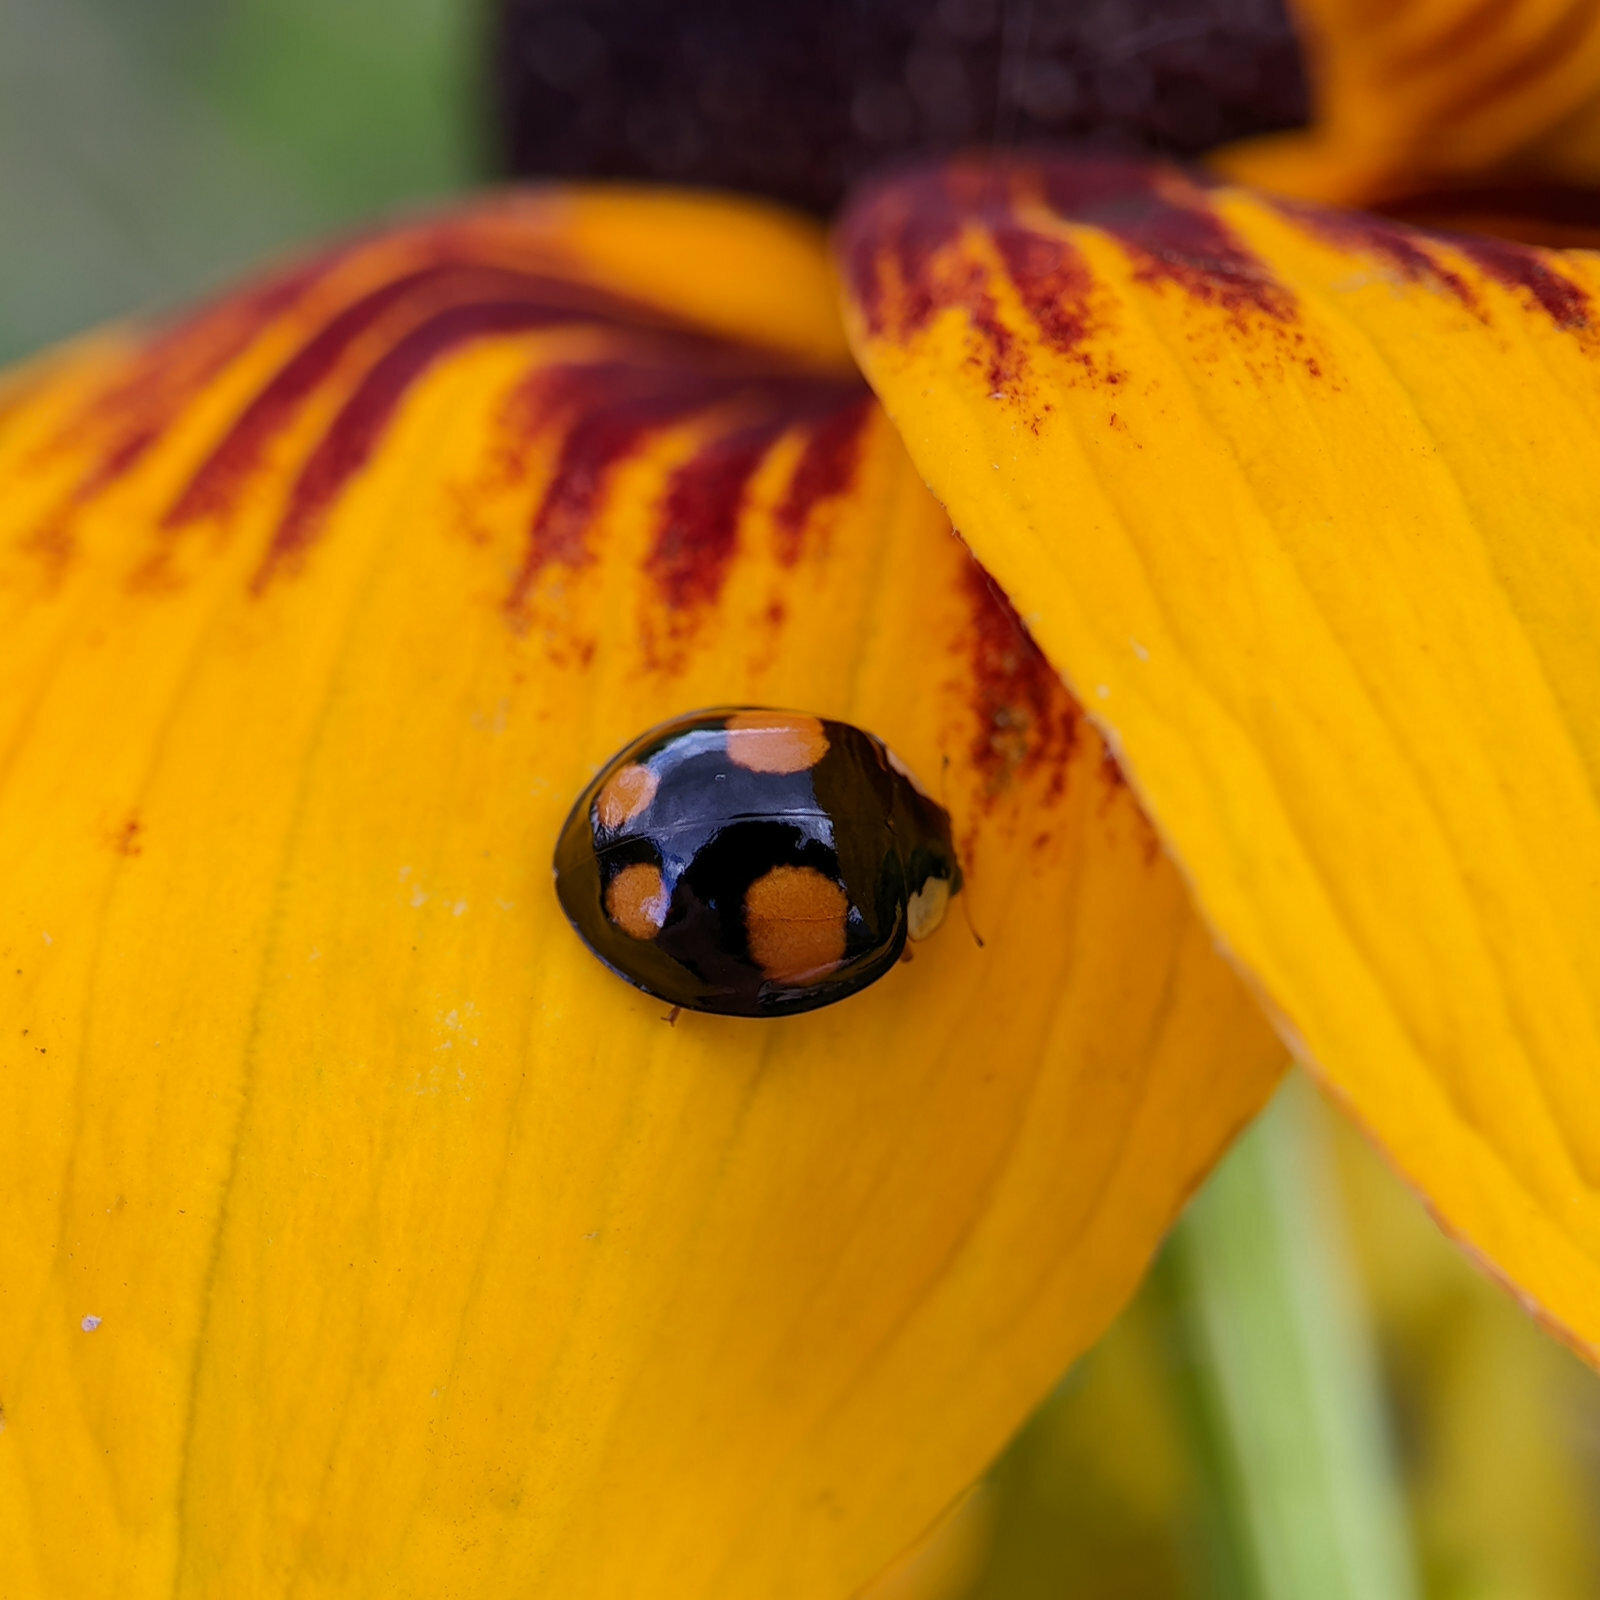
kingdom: Animalia
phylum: Arthropoda
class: Insecta
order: Coleoptera
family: Coccinellidae
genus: Harmonia
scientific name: Harmonia axyridis
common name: Harlequin ladybird
